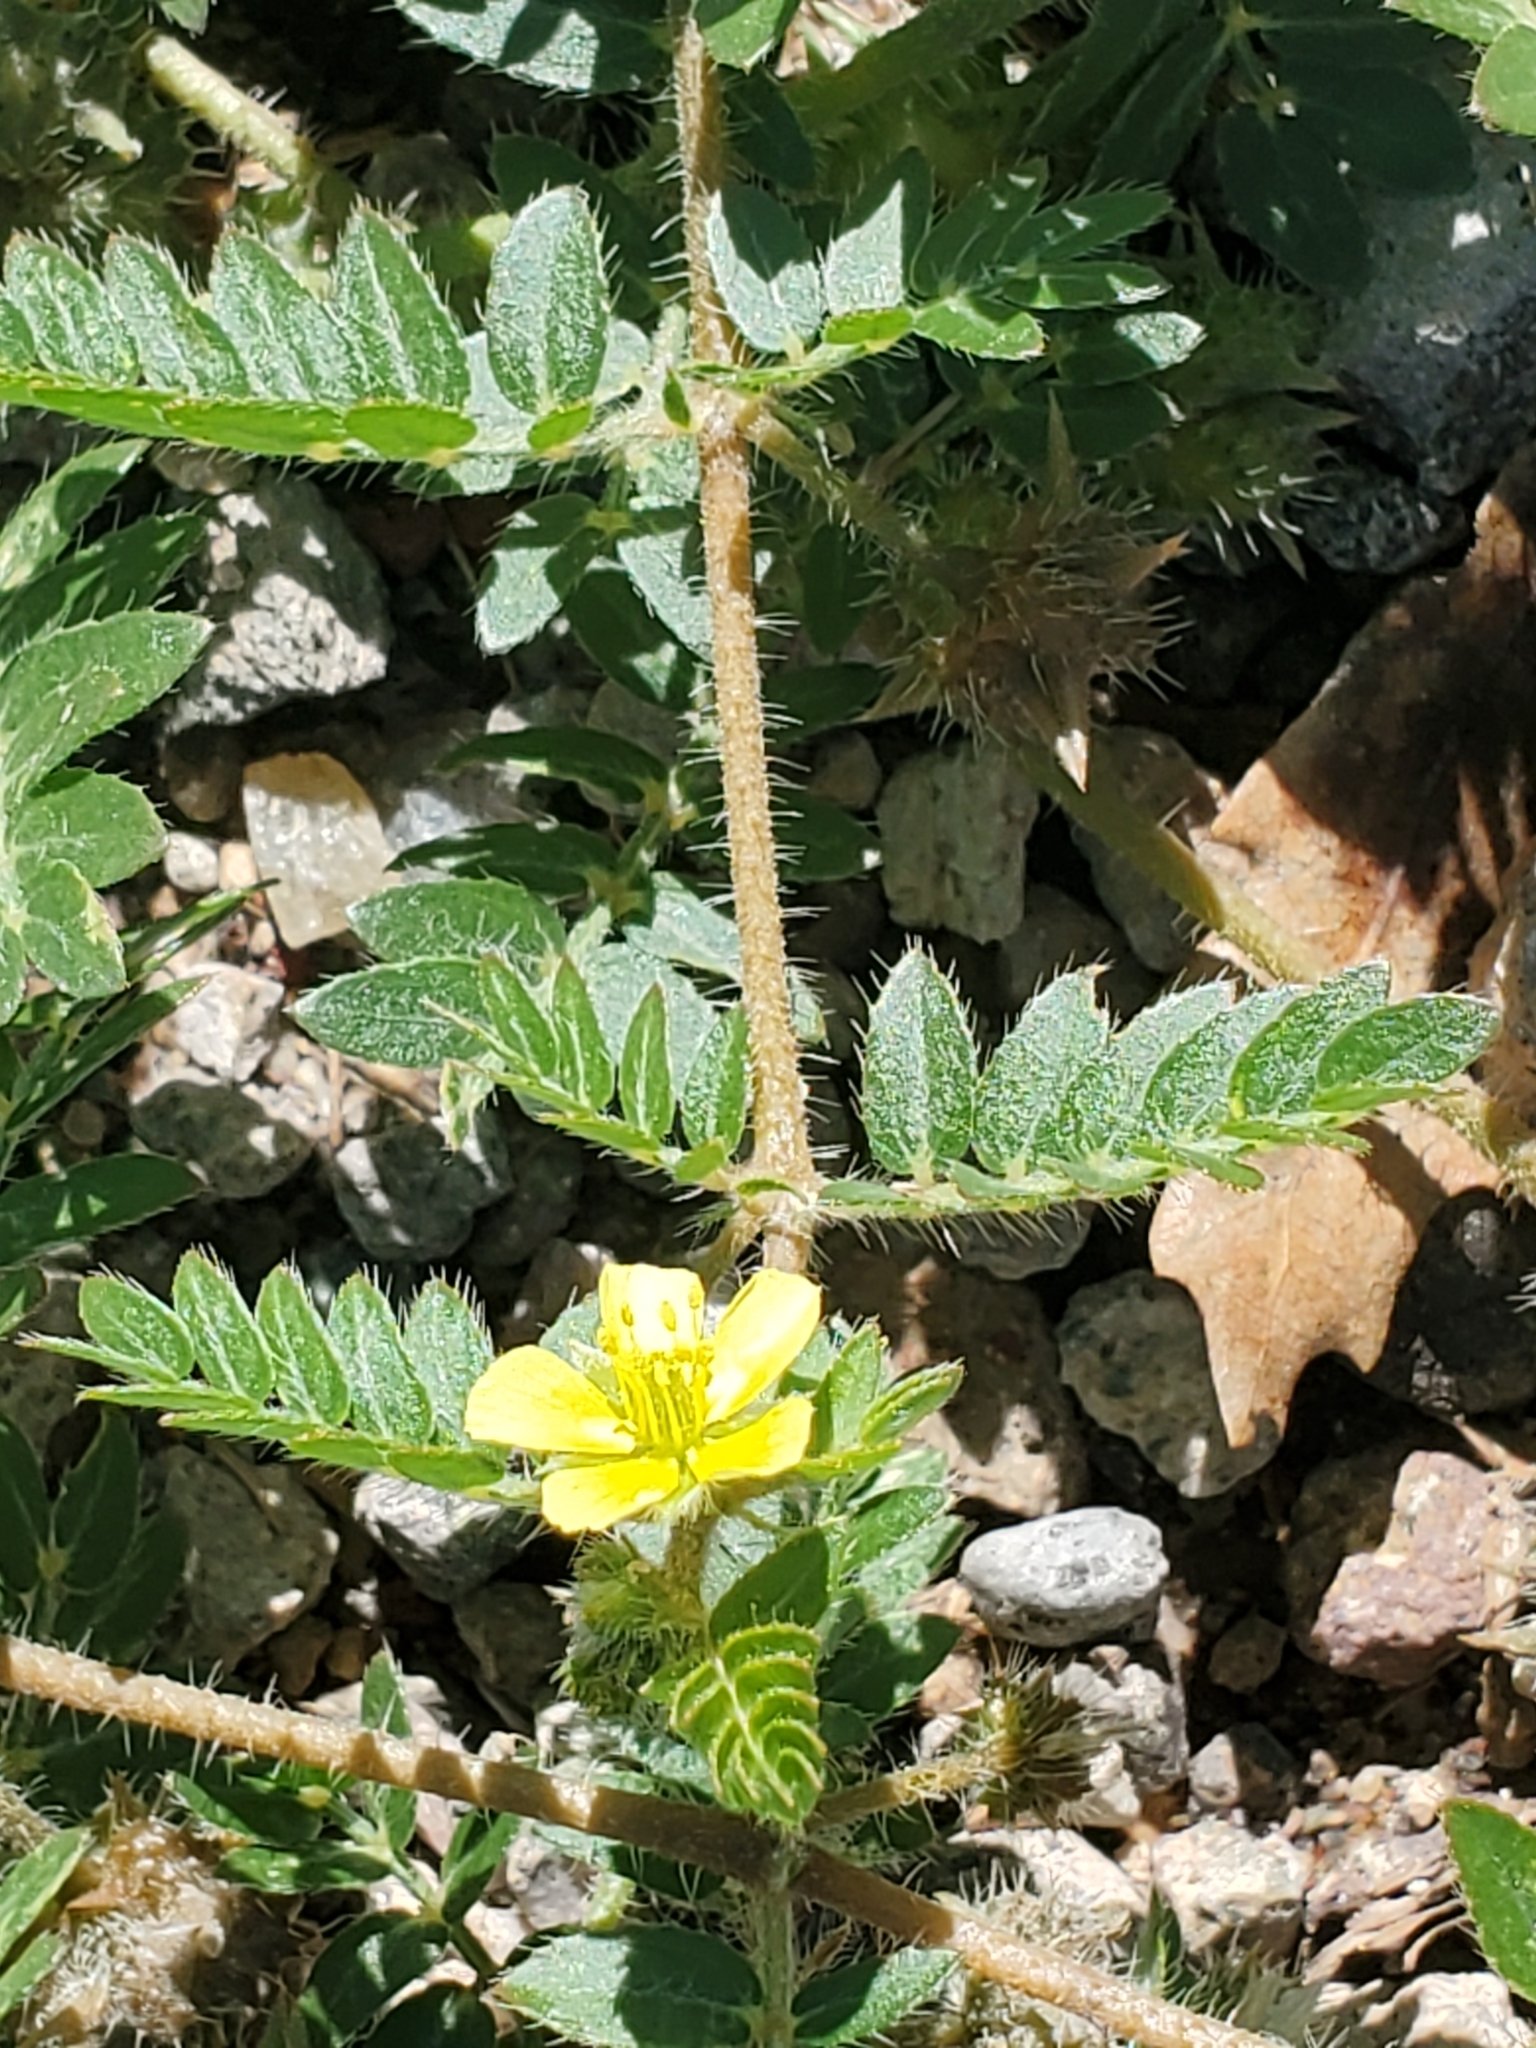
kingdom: Plantae
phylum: Tracheophyta
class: Magnoliopsida
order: Zygophyllales
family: Zygophyllaceae
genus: Tribulus
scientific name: Tribulus terrestris
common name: Puncturevine
